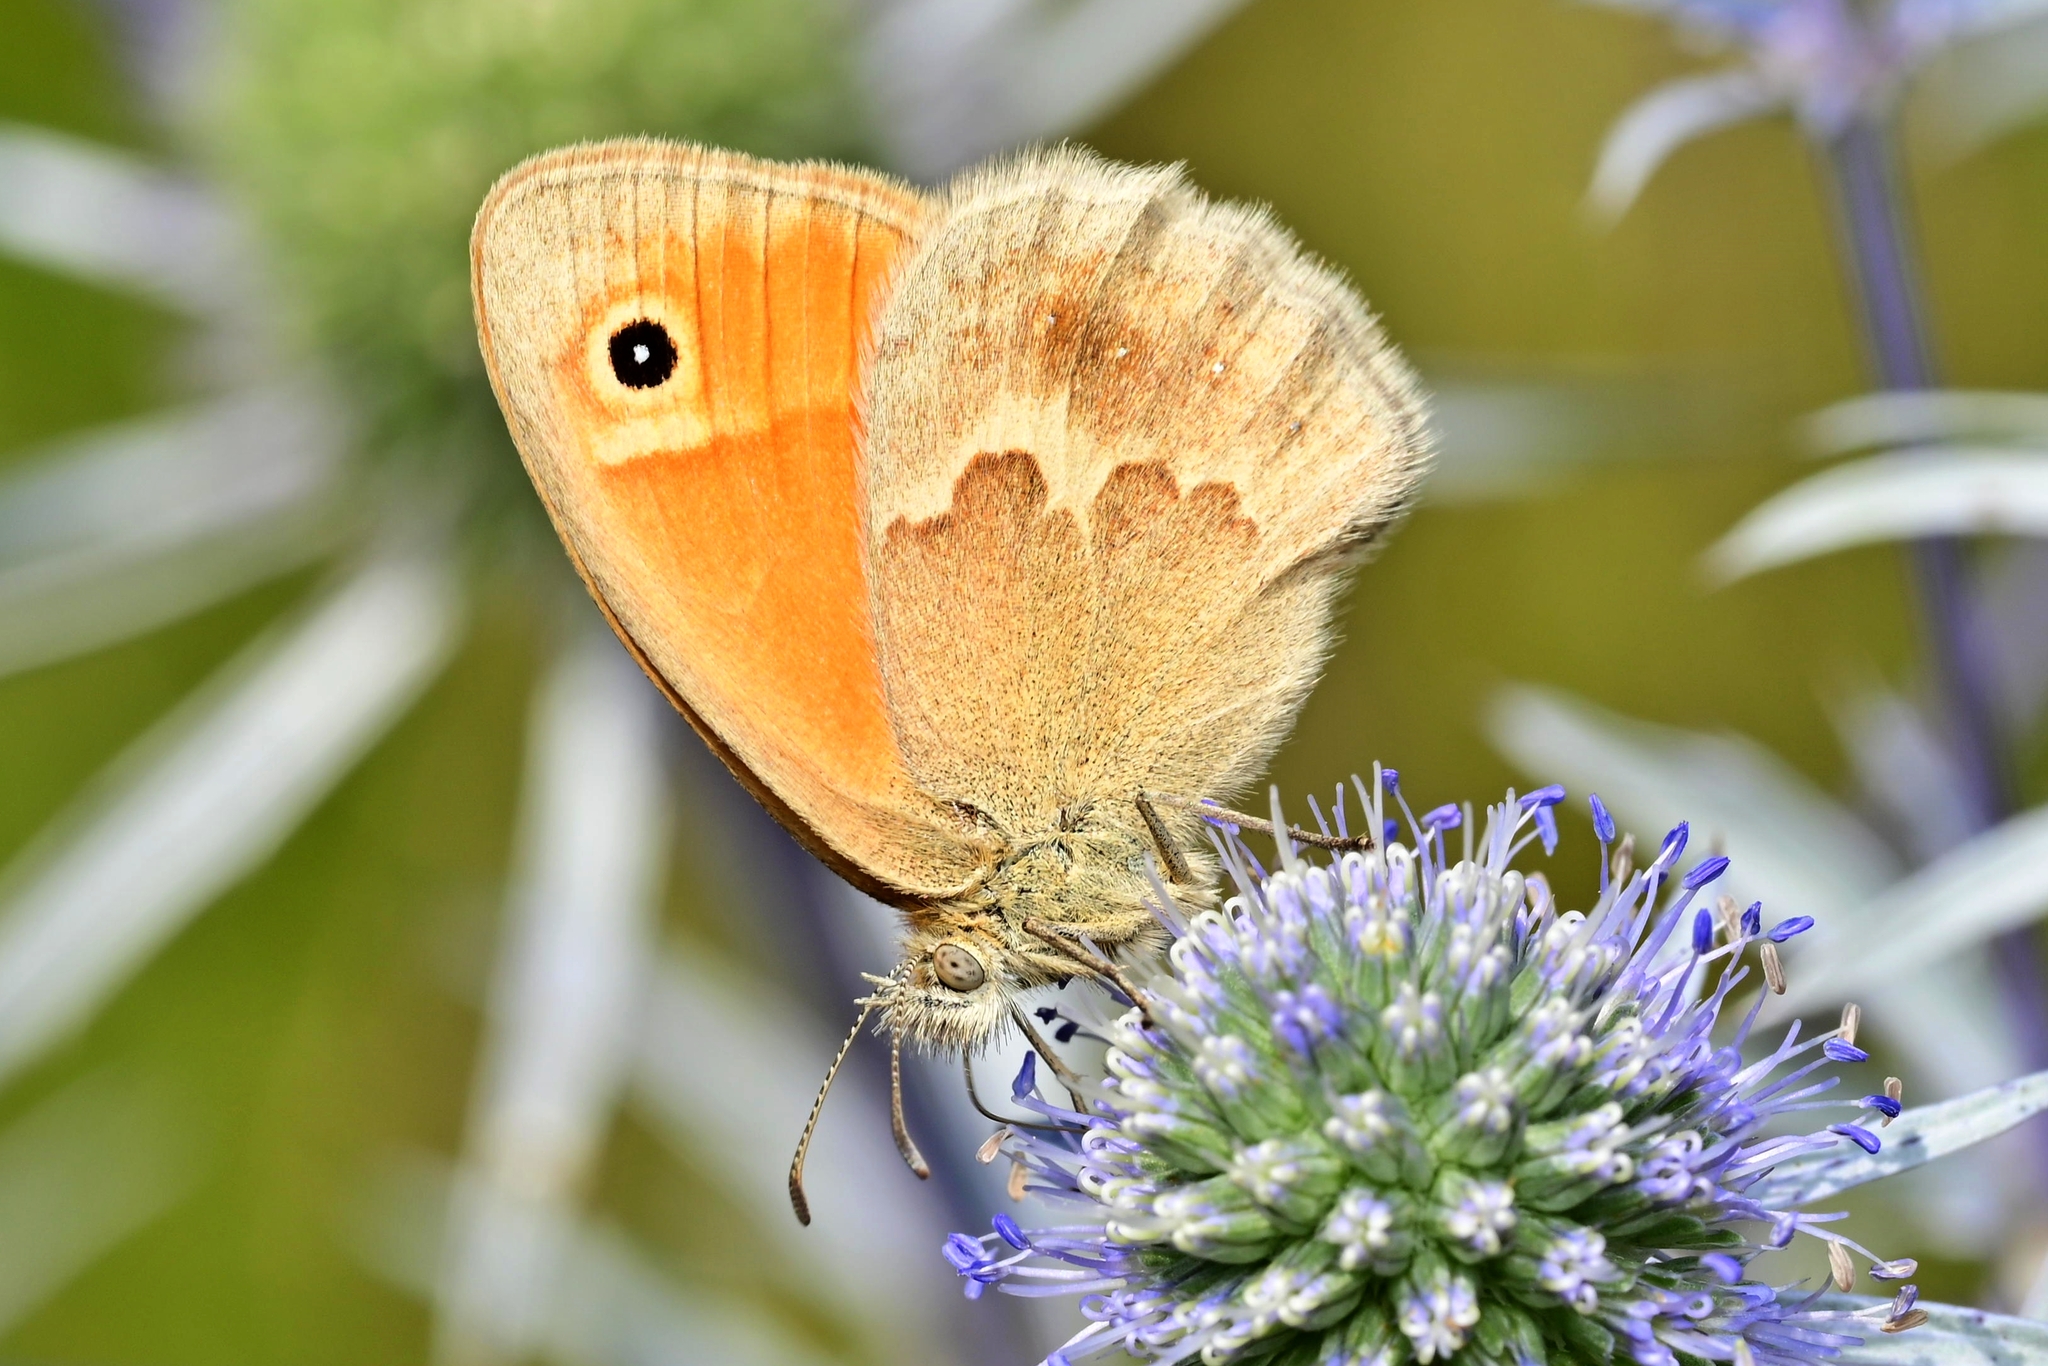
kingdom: Animalia
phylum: Arthropoda
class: Insecta
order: Lepidoptera
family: Nymphalidae
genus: Coenonympha
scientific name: Coenonympha pamphilus
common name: Small heath
